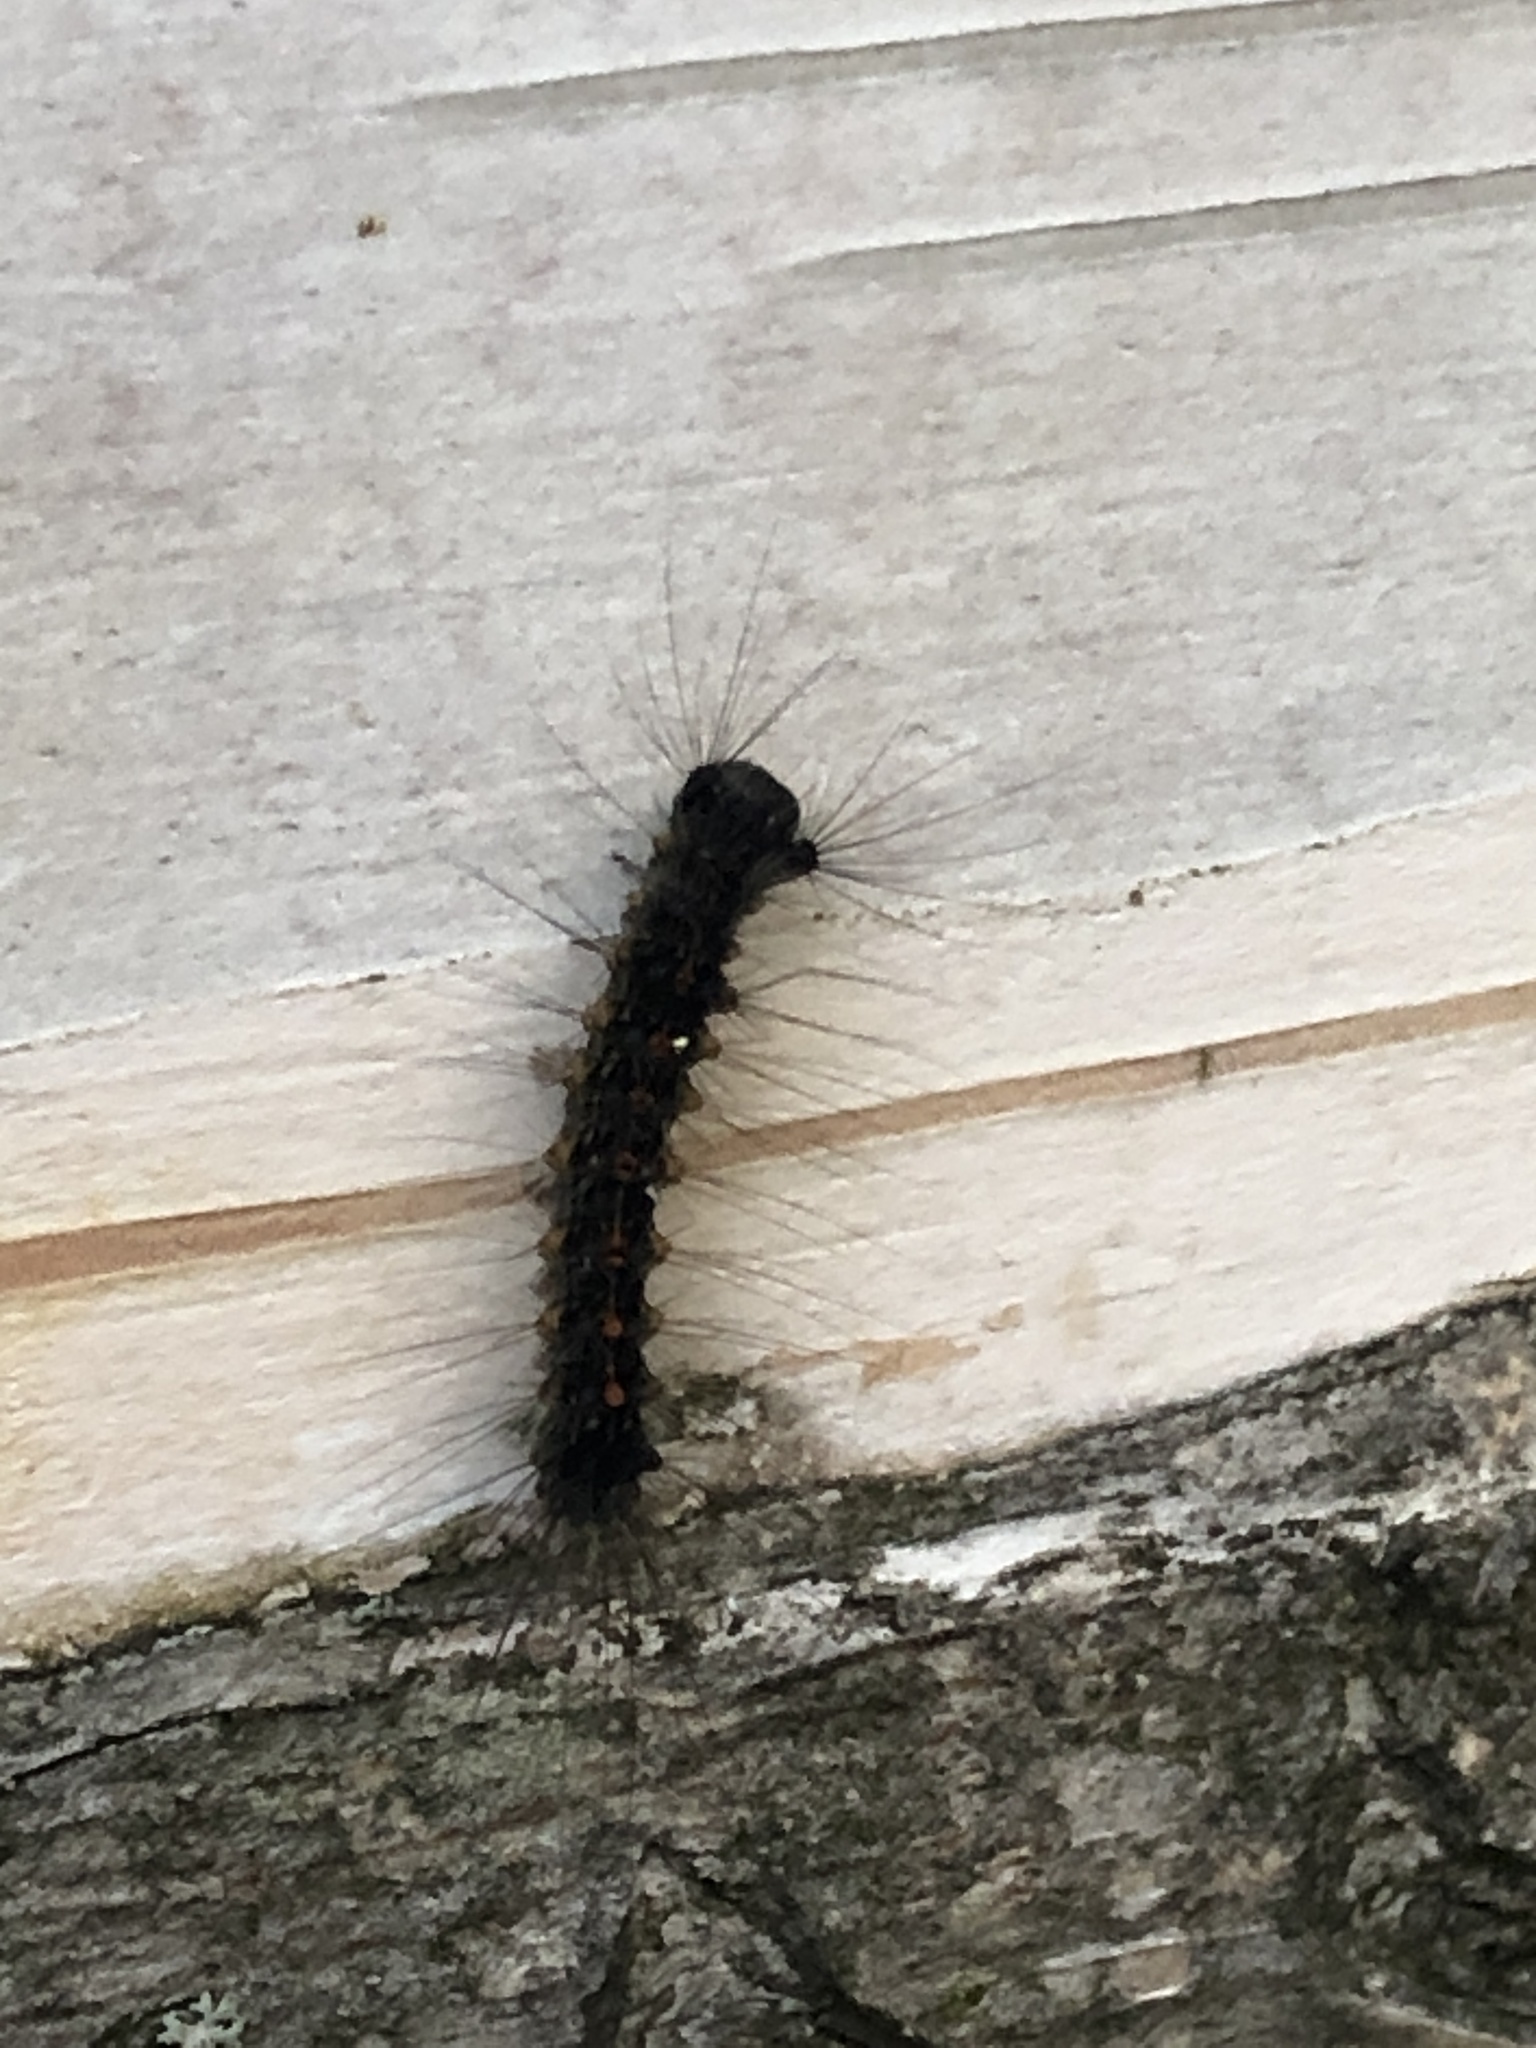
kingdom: Animalia
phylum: Arthropoda
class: Insecta
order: Lepidoptera
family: Erebidae
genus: Lymantria
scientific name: Lymantria dispar
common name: Gypsy moth
